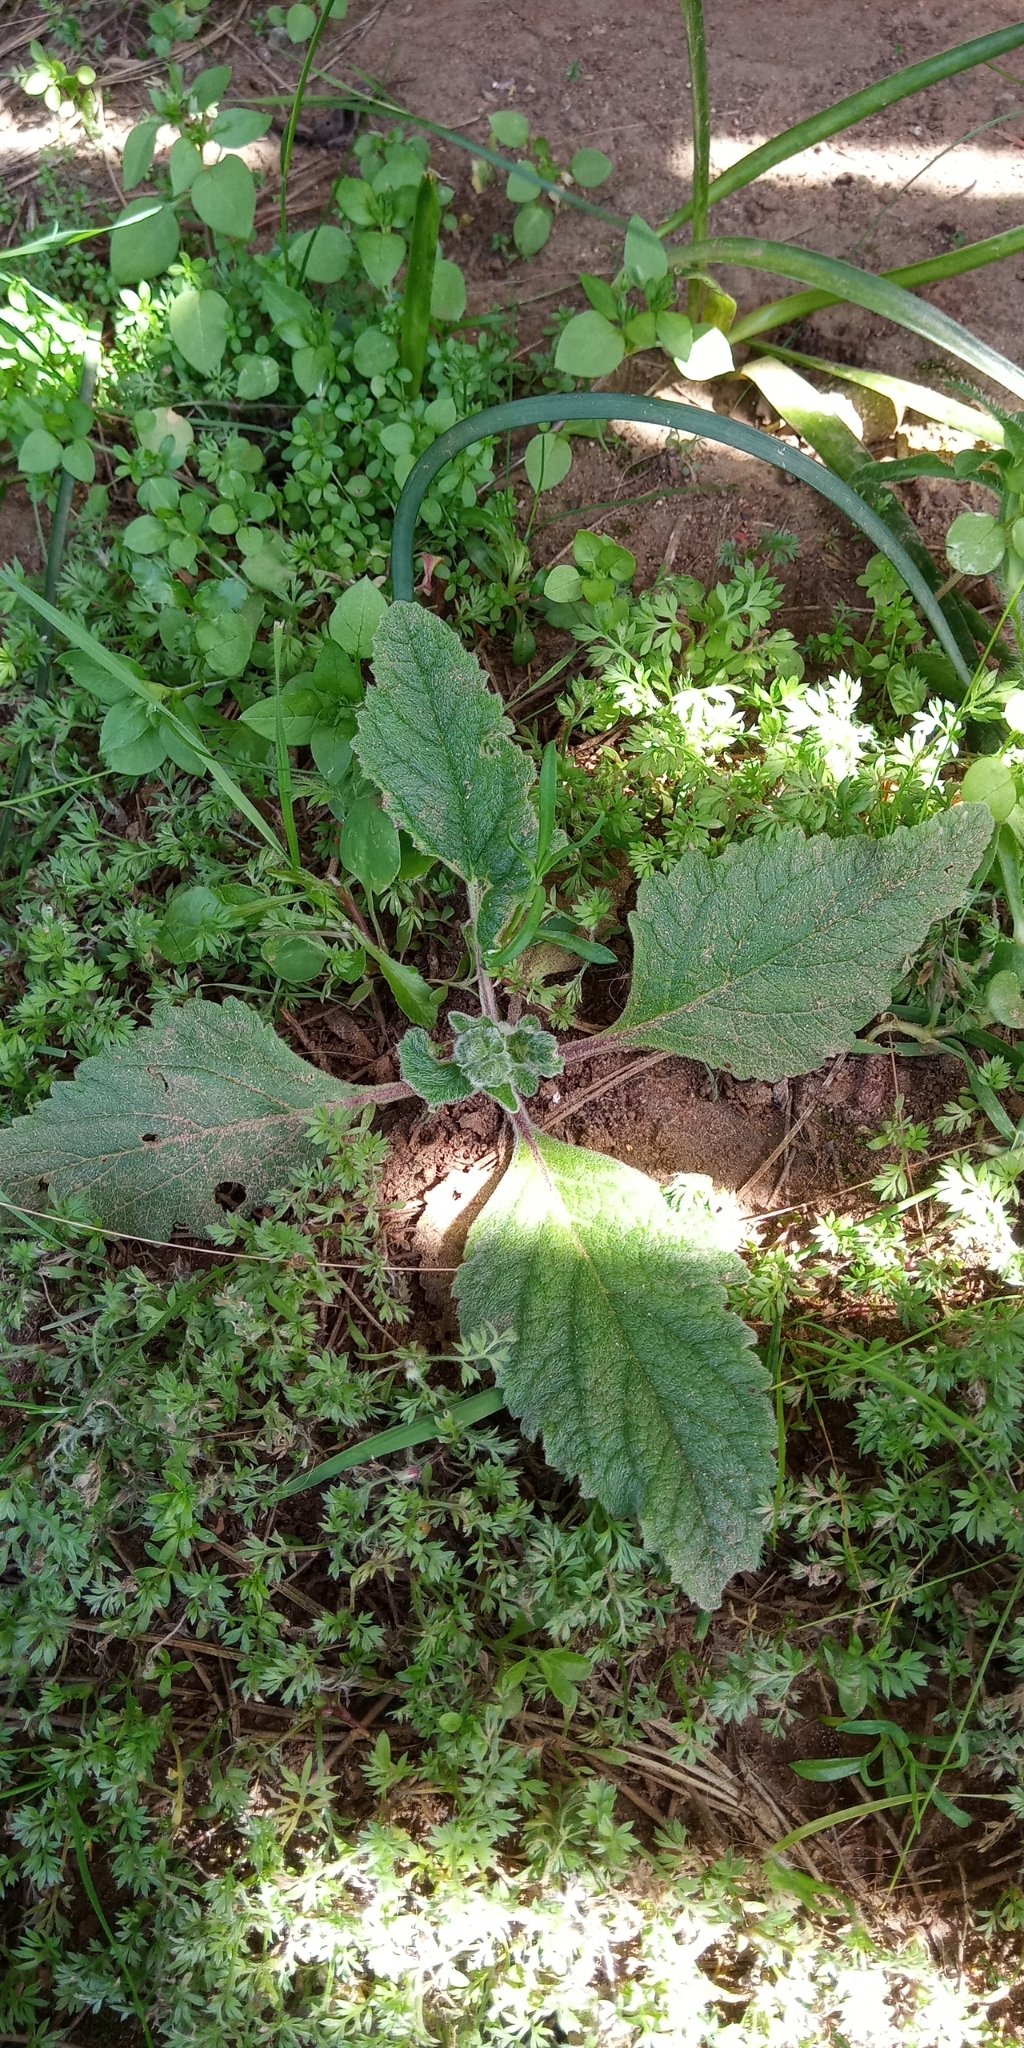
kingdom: Plantae
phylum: Tracheophyta
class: Magnoliopsida
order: Lamiales
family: Calceolariaceae
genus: Calceolaria
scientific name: Calceolaria corymbosa
